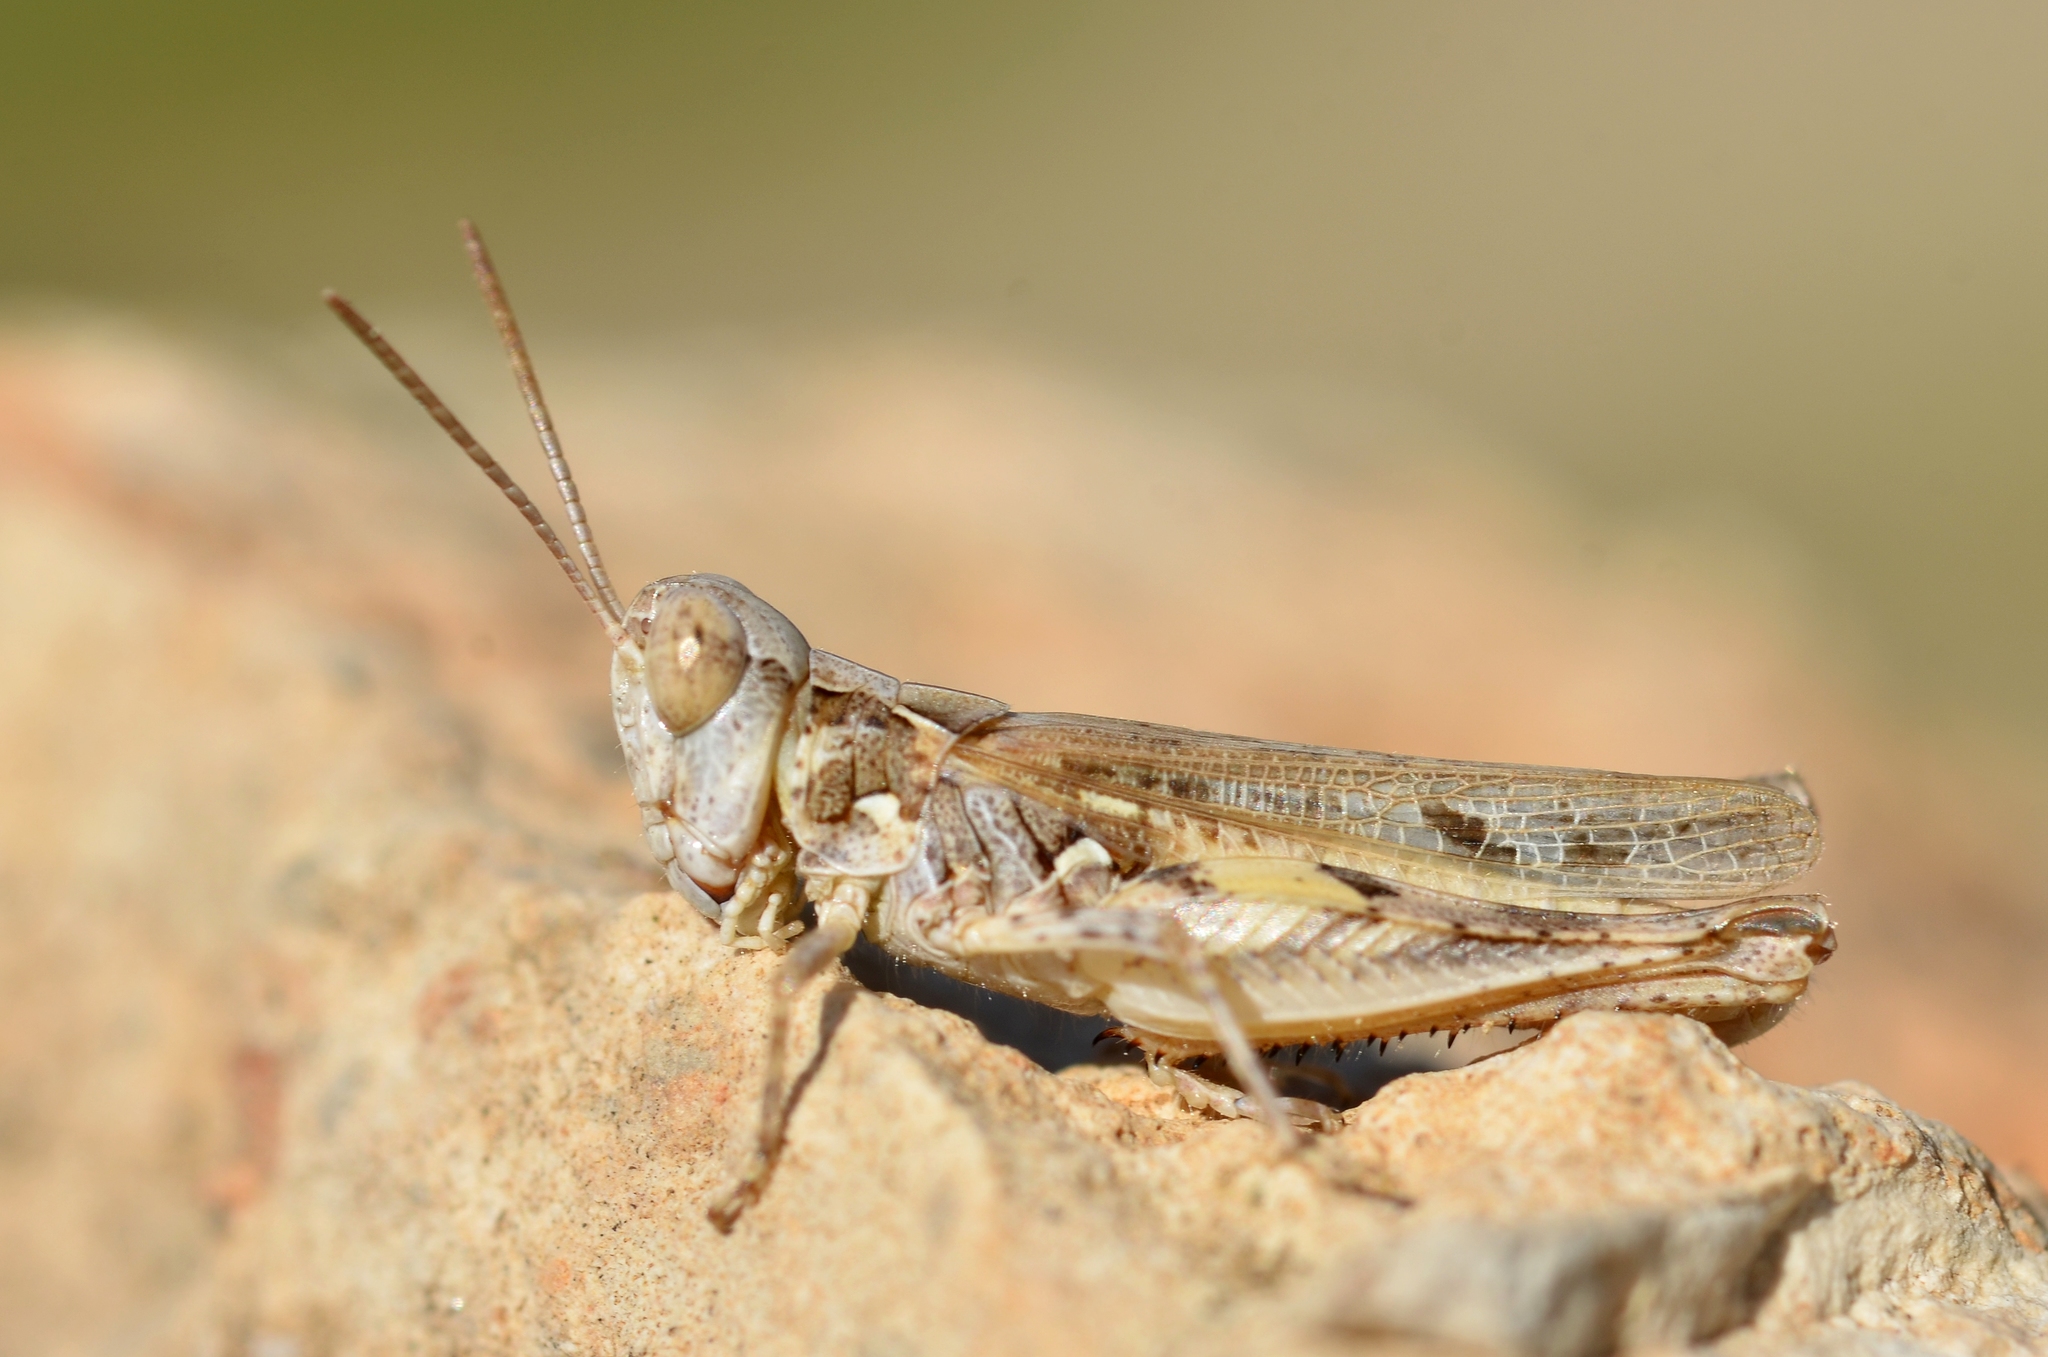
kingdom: Animalia
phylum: Arthropoda
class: Insecta
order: Orthoptera
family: Acrididae
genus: Dociostaurus
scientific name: Dociostaurus jagoi
